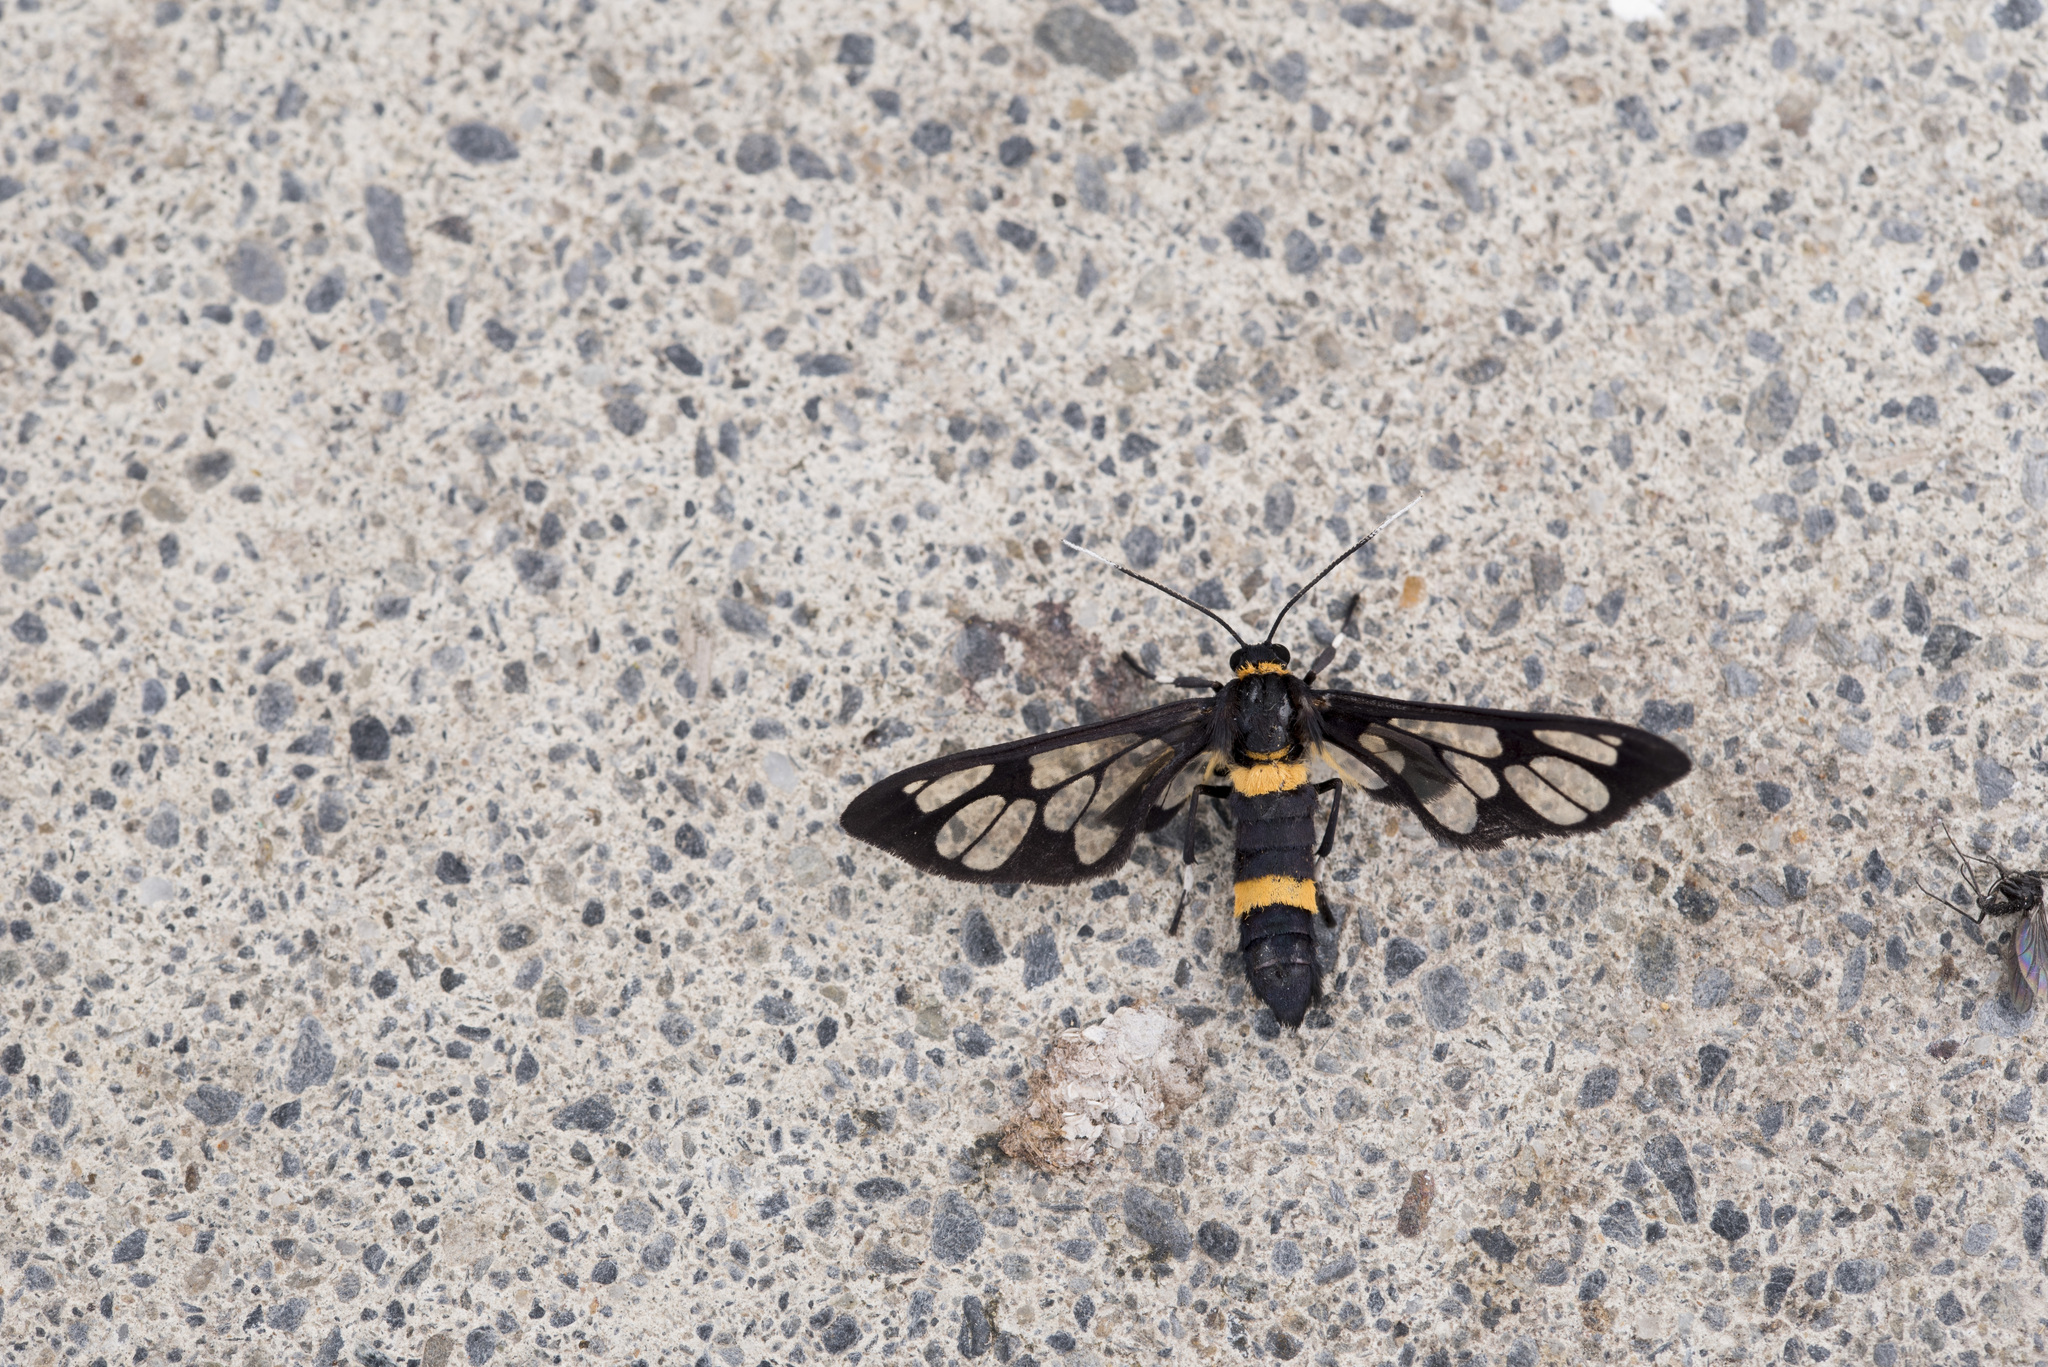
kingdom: Animalia
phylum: Arthropoda
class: Insecta
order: Lepidoptera
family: Erebidae
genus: Syntomoides
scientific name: Syntomoides imaon
